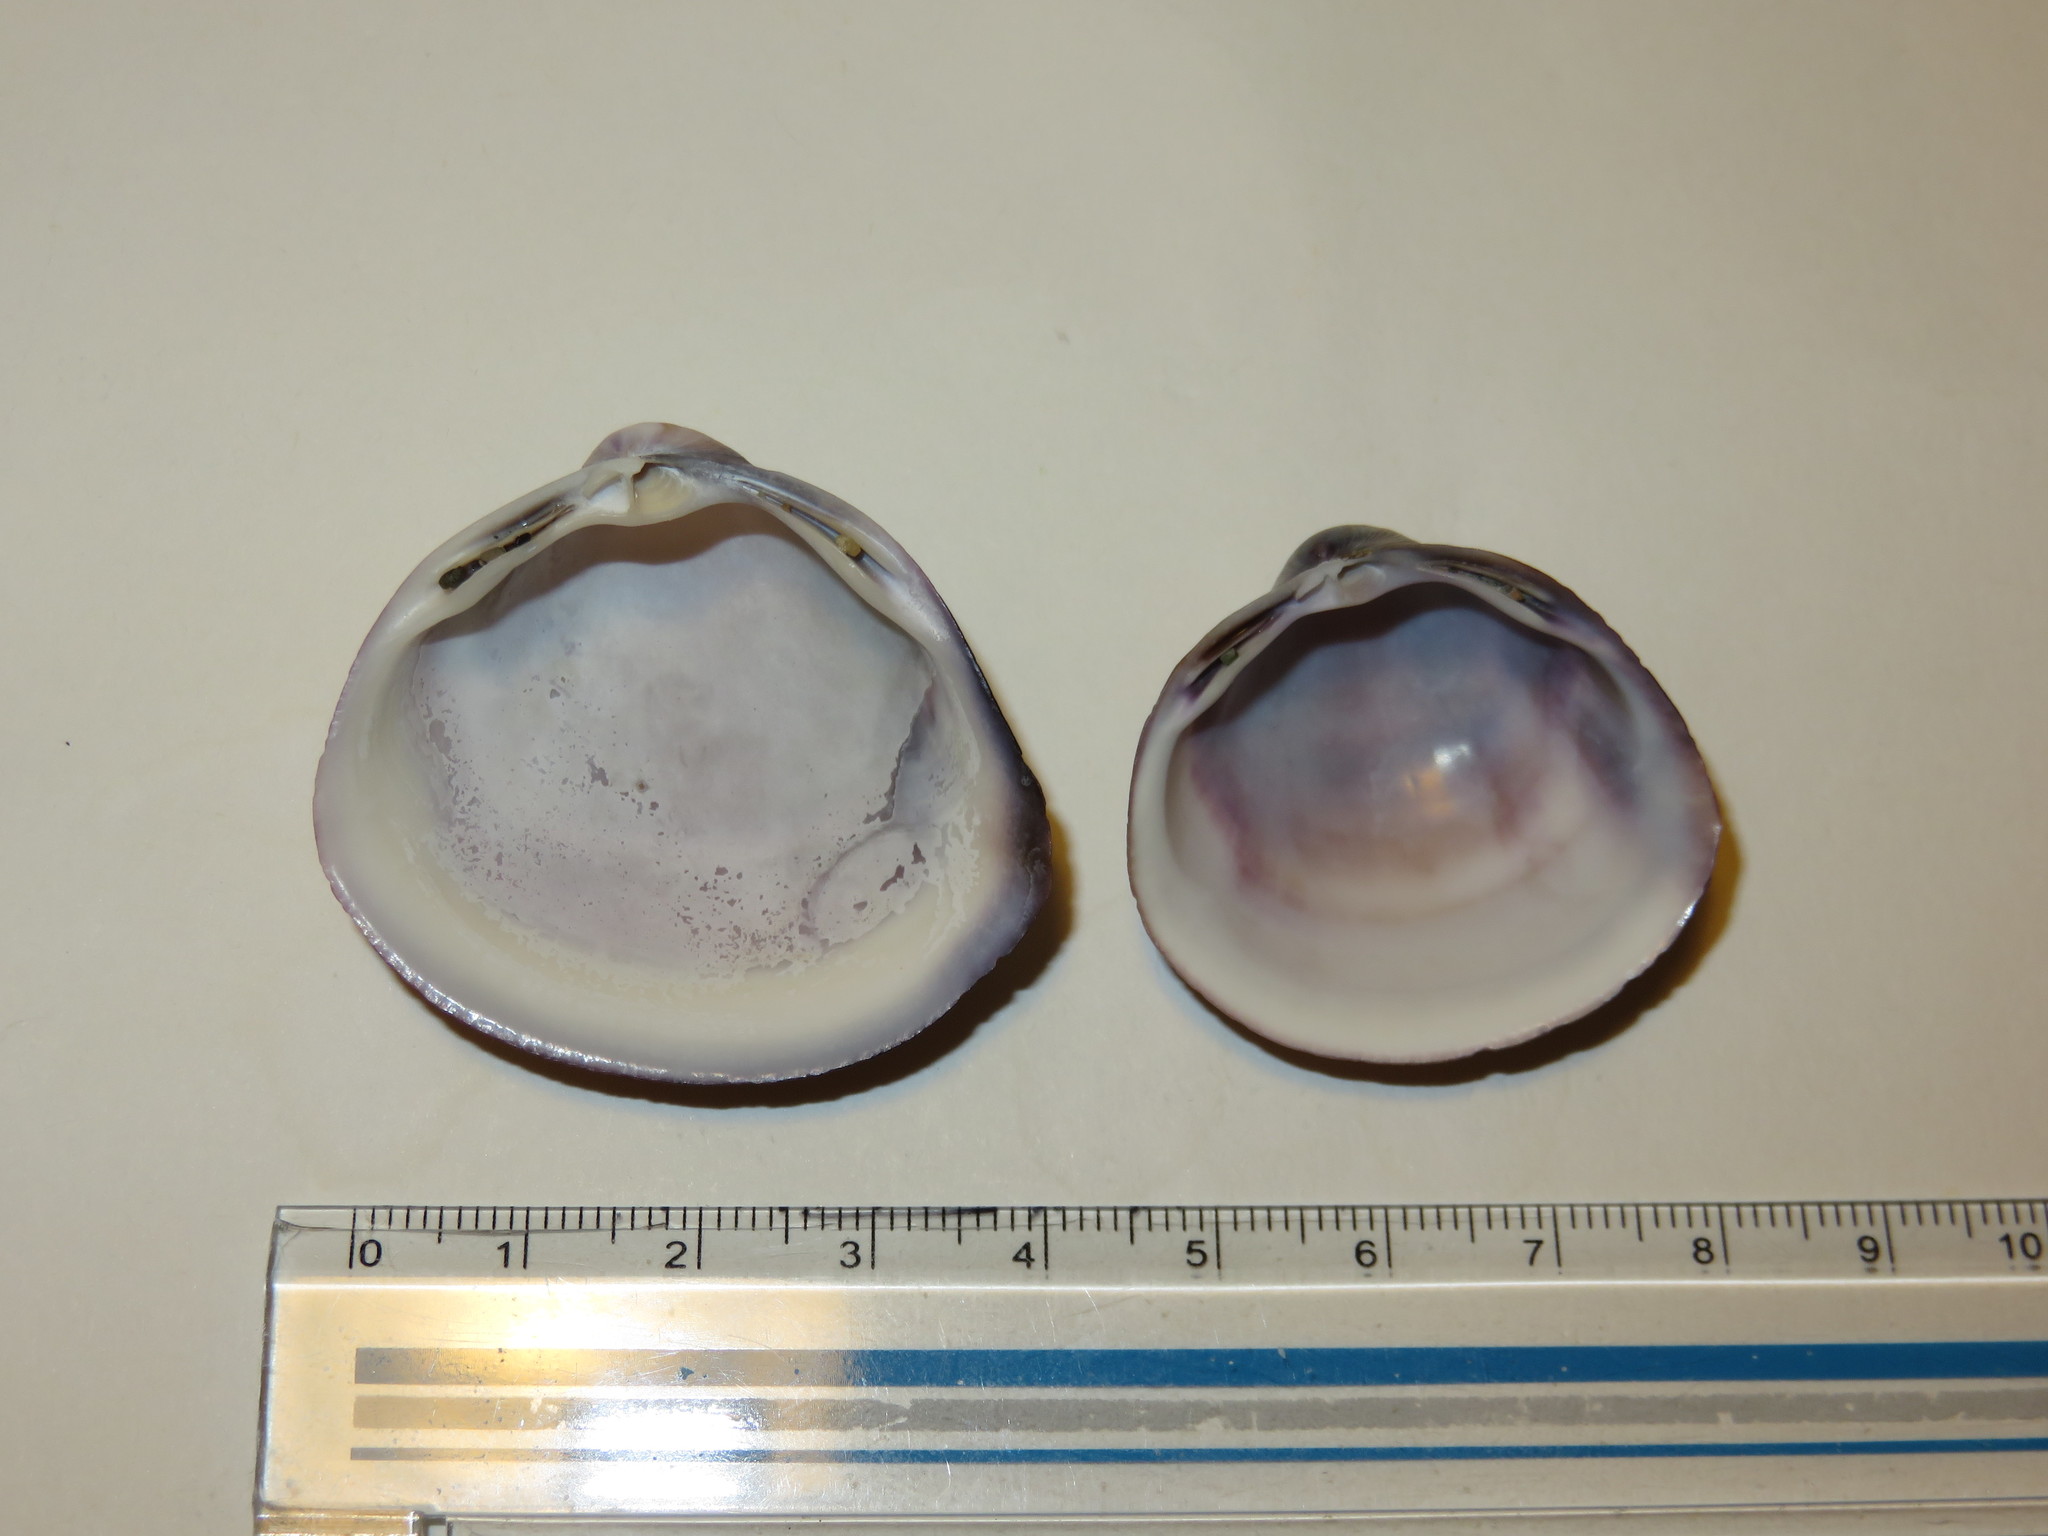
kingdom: Animalia
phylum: Mollusca
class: Bivalvia
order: Venerida
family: Mactridae
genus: Mactra
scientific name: Mactra quadrangularis
